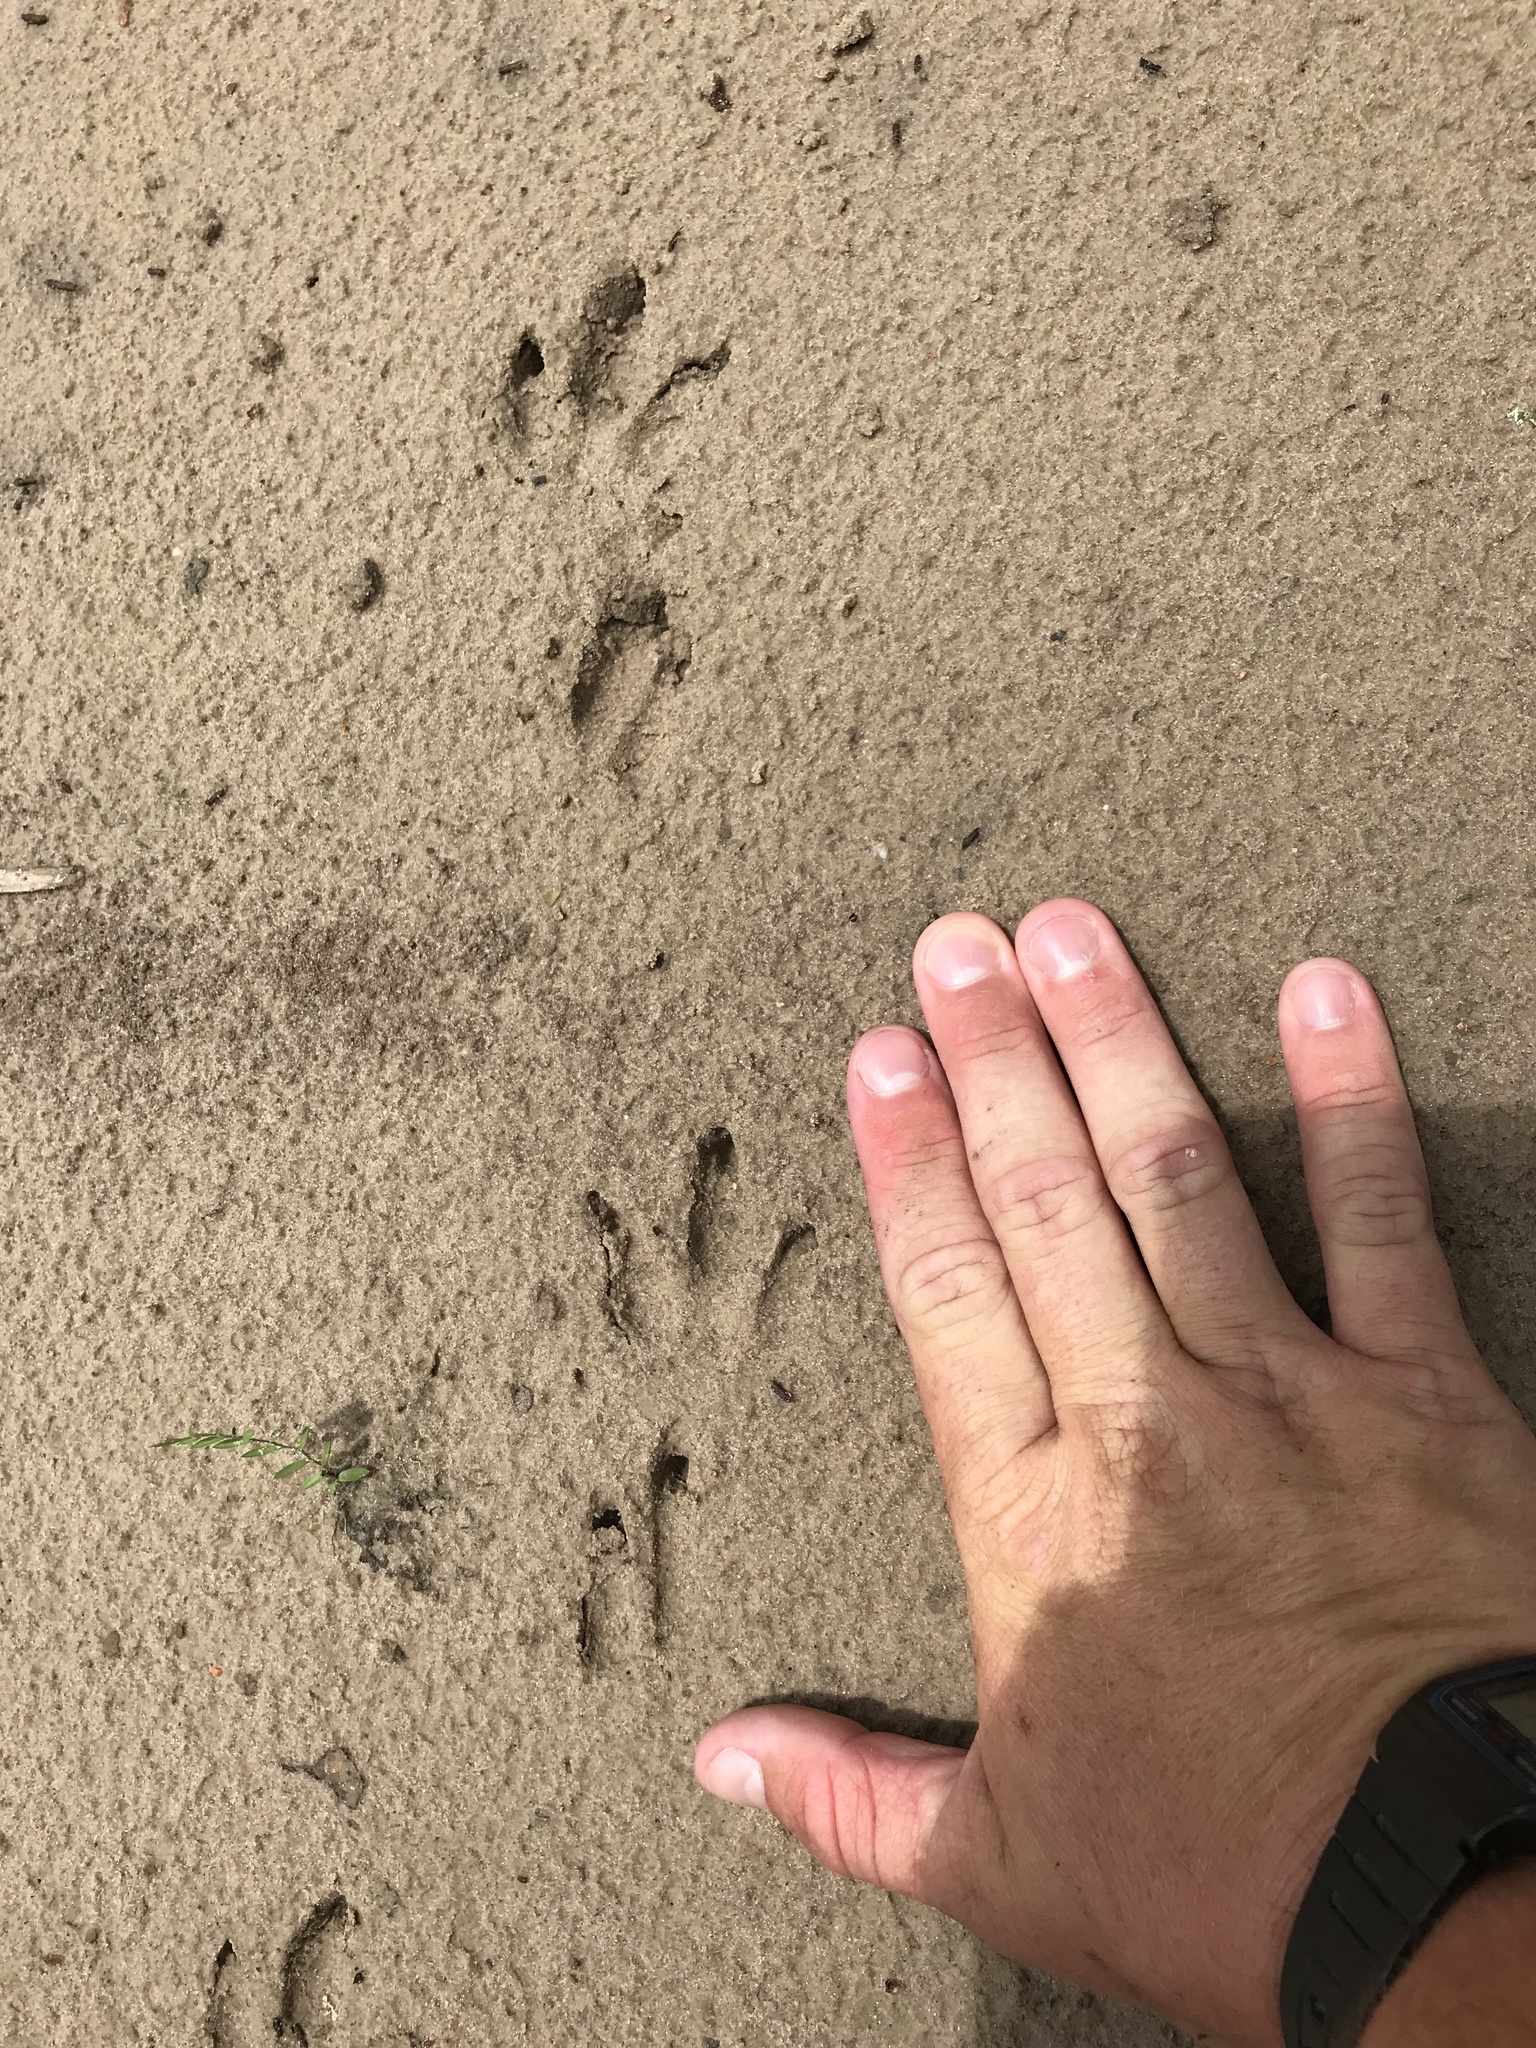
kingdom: Animalia
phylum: Chordata
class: Mammalia
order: Cingulata
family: Dasypodidae
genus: Dasypus
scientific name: Dasypus novemcinctus
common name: Nine-banded armadillo
